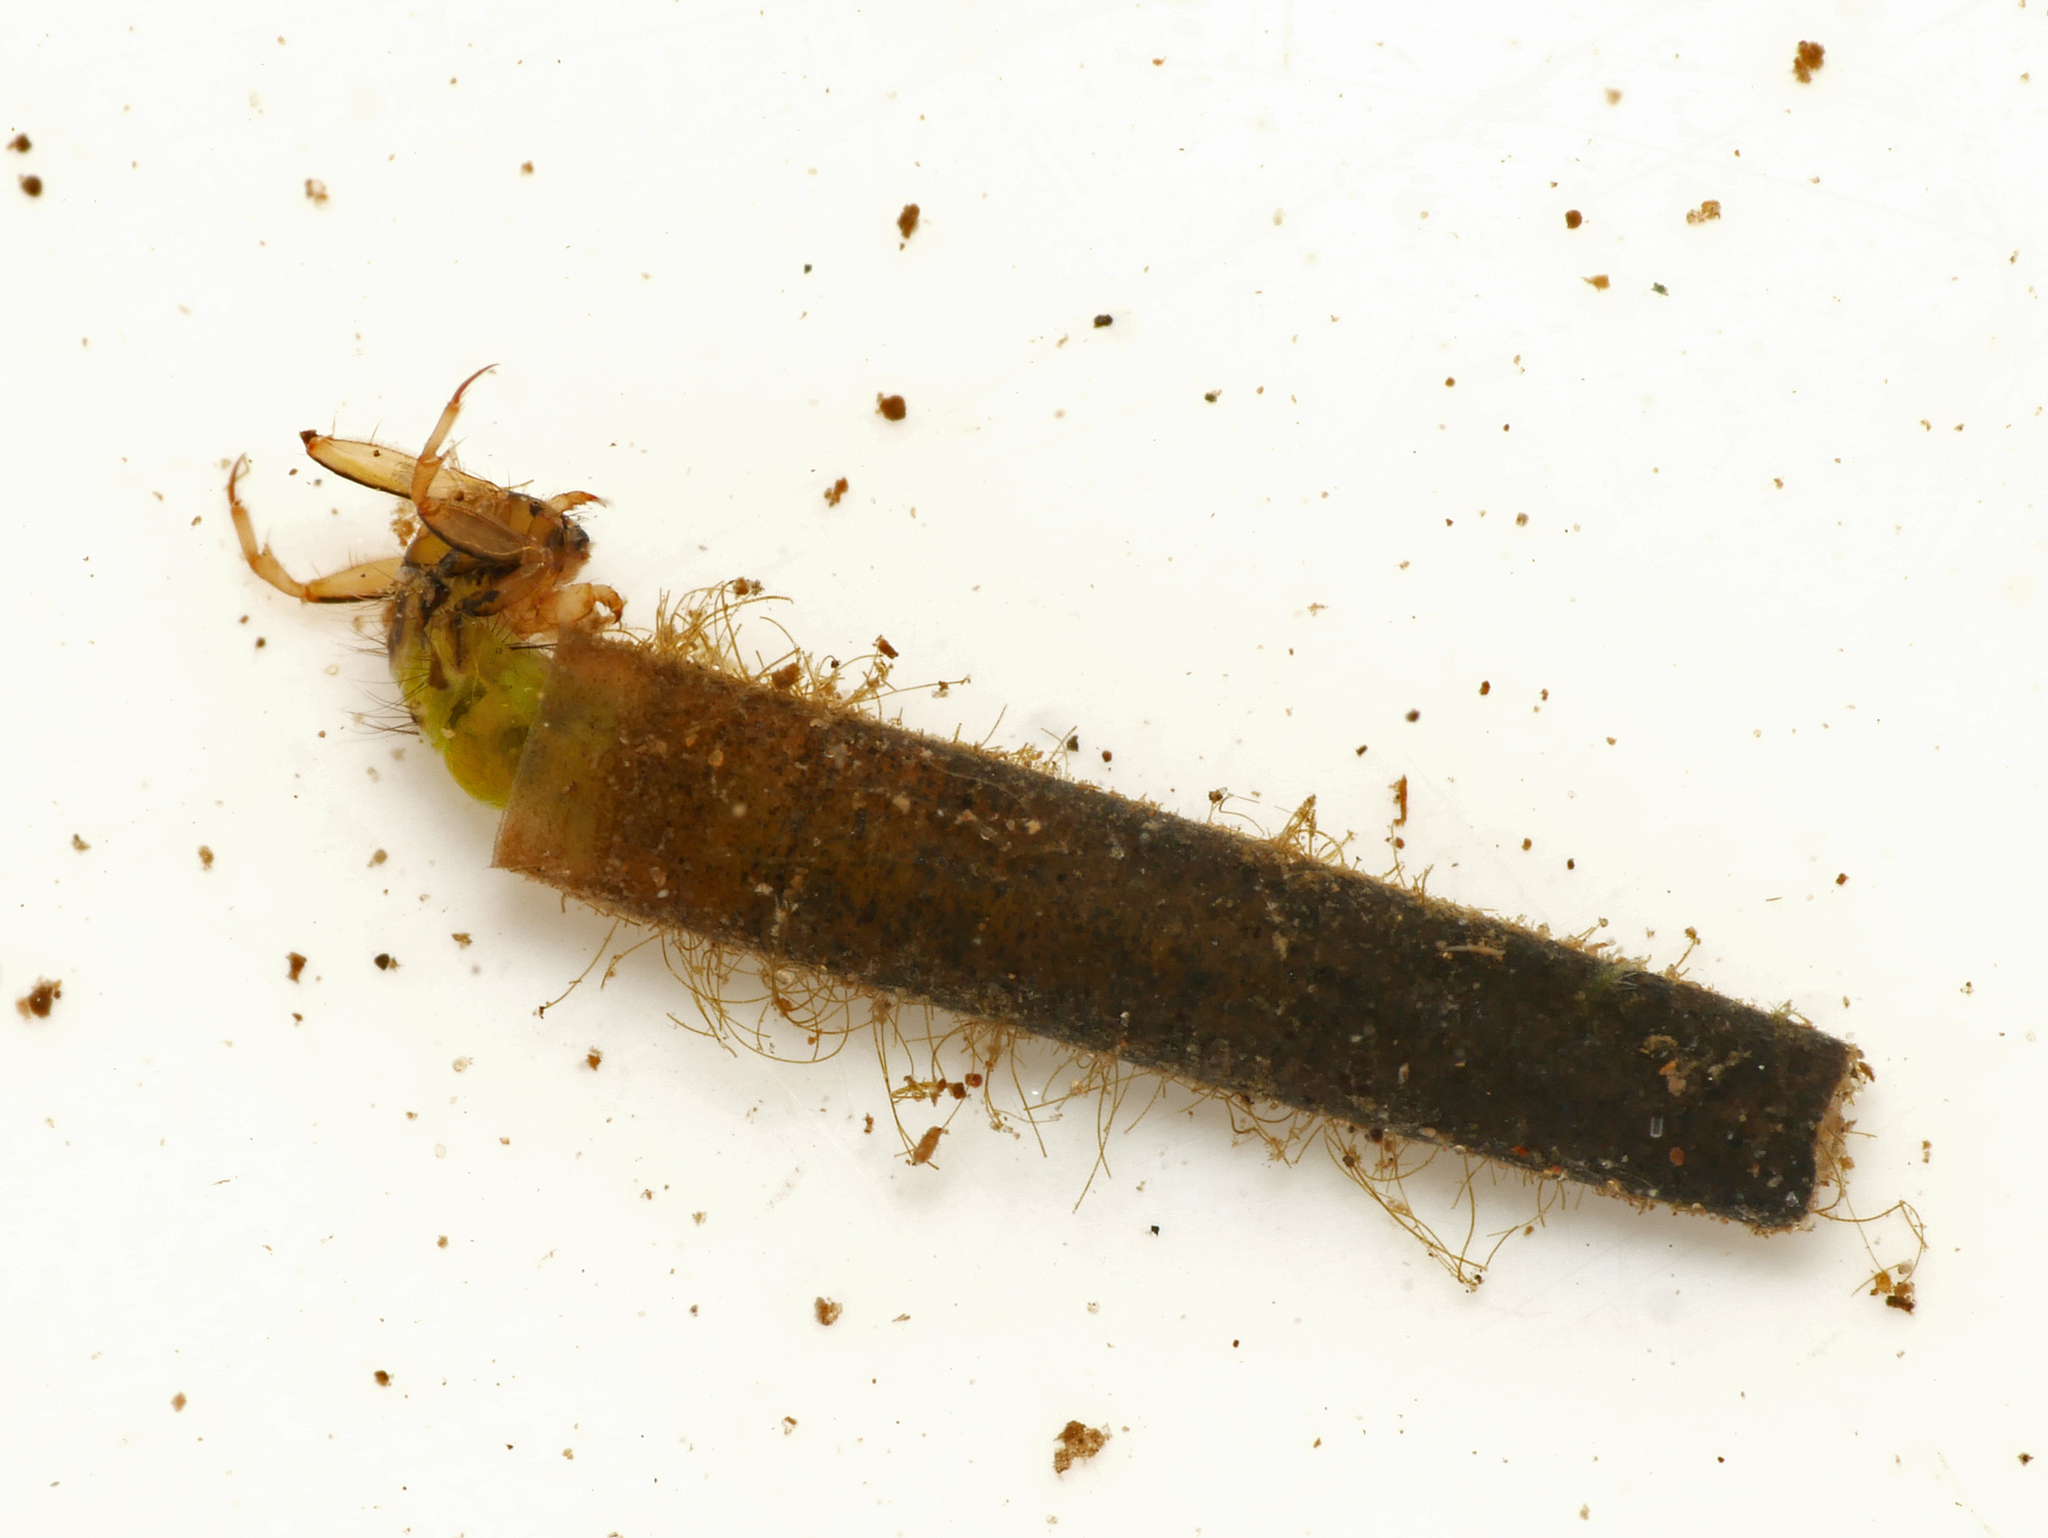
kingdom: Animalia
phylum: Arthropoda
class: Insecta
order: Trichoptera
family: Brachycentridae
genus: Brachycentrus
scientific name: Brachycentrus subnubilis
